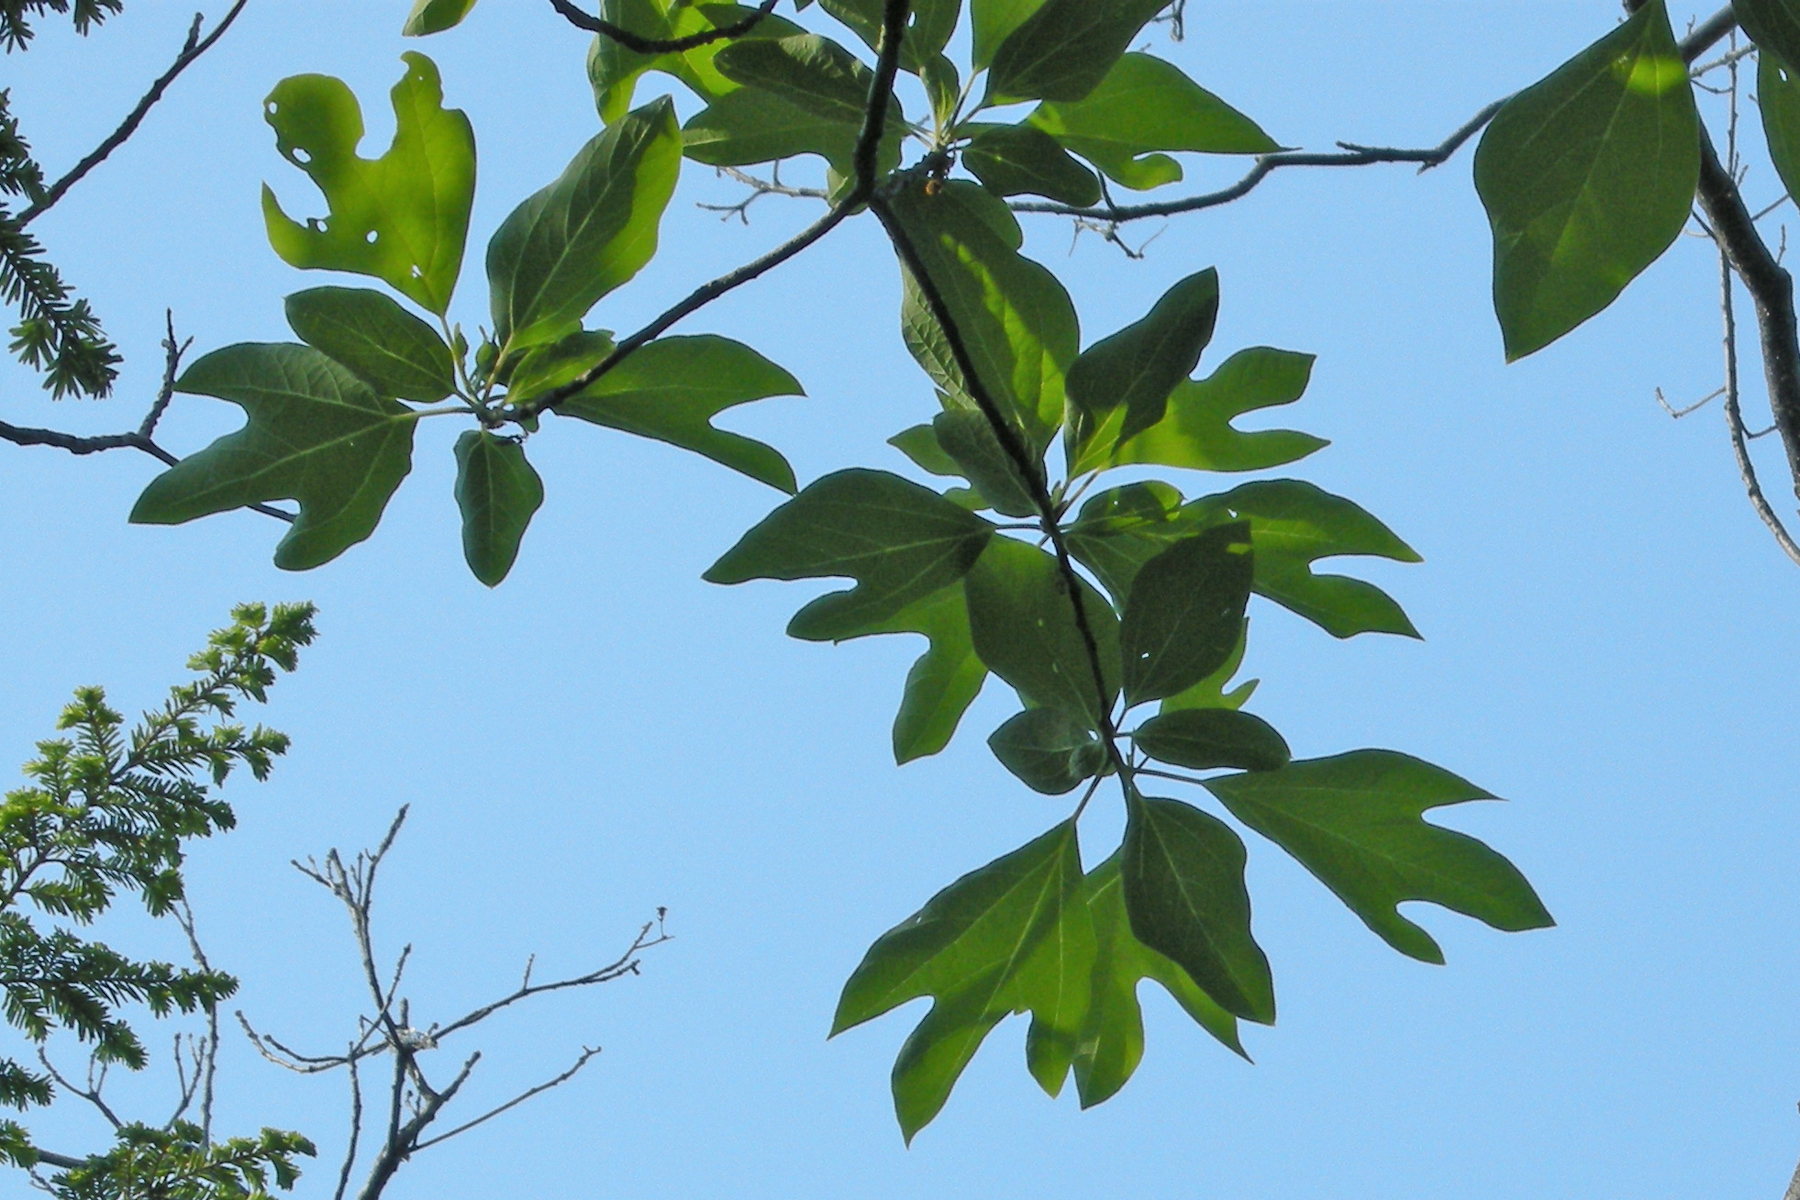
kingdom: Plantae
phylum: Tracheophyta
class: Magnoliopsida
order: Laurales
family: Lauraceae
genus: Sassafras
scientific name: Sassafras albidum
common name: Sassafras
